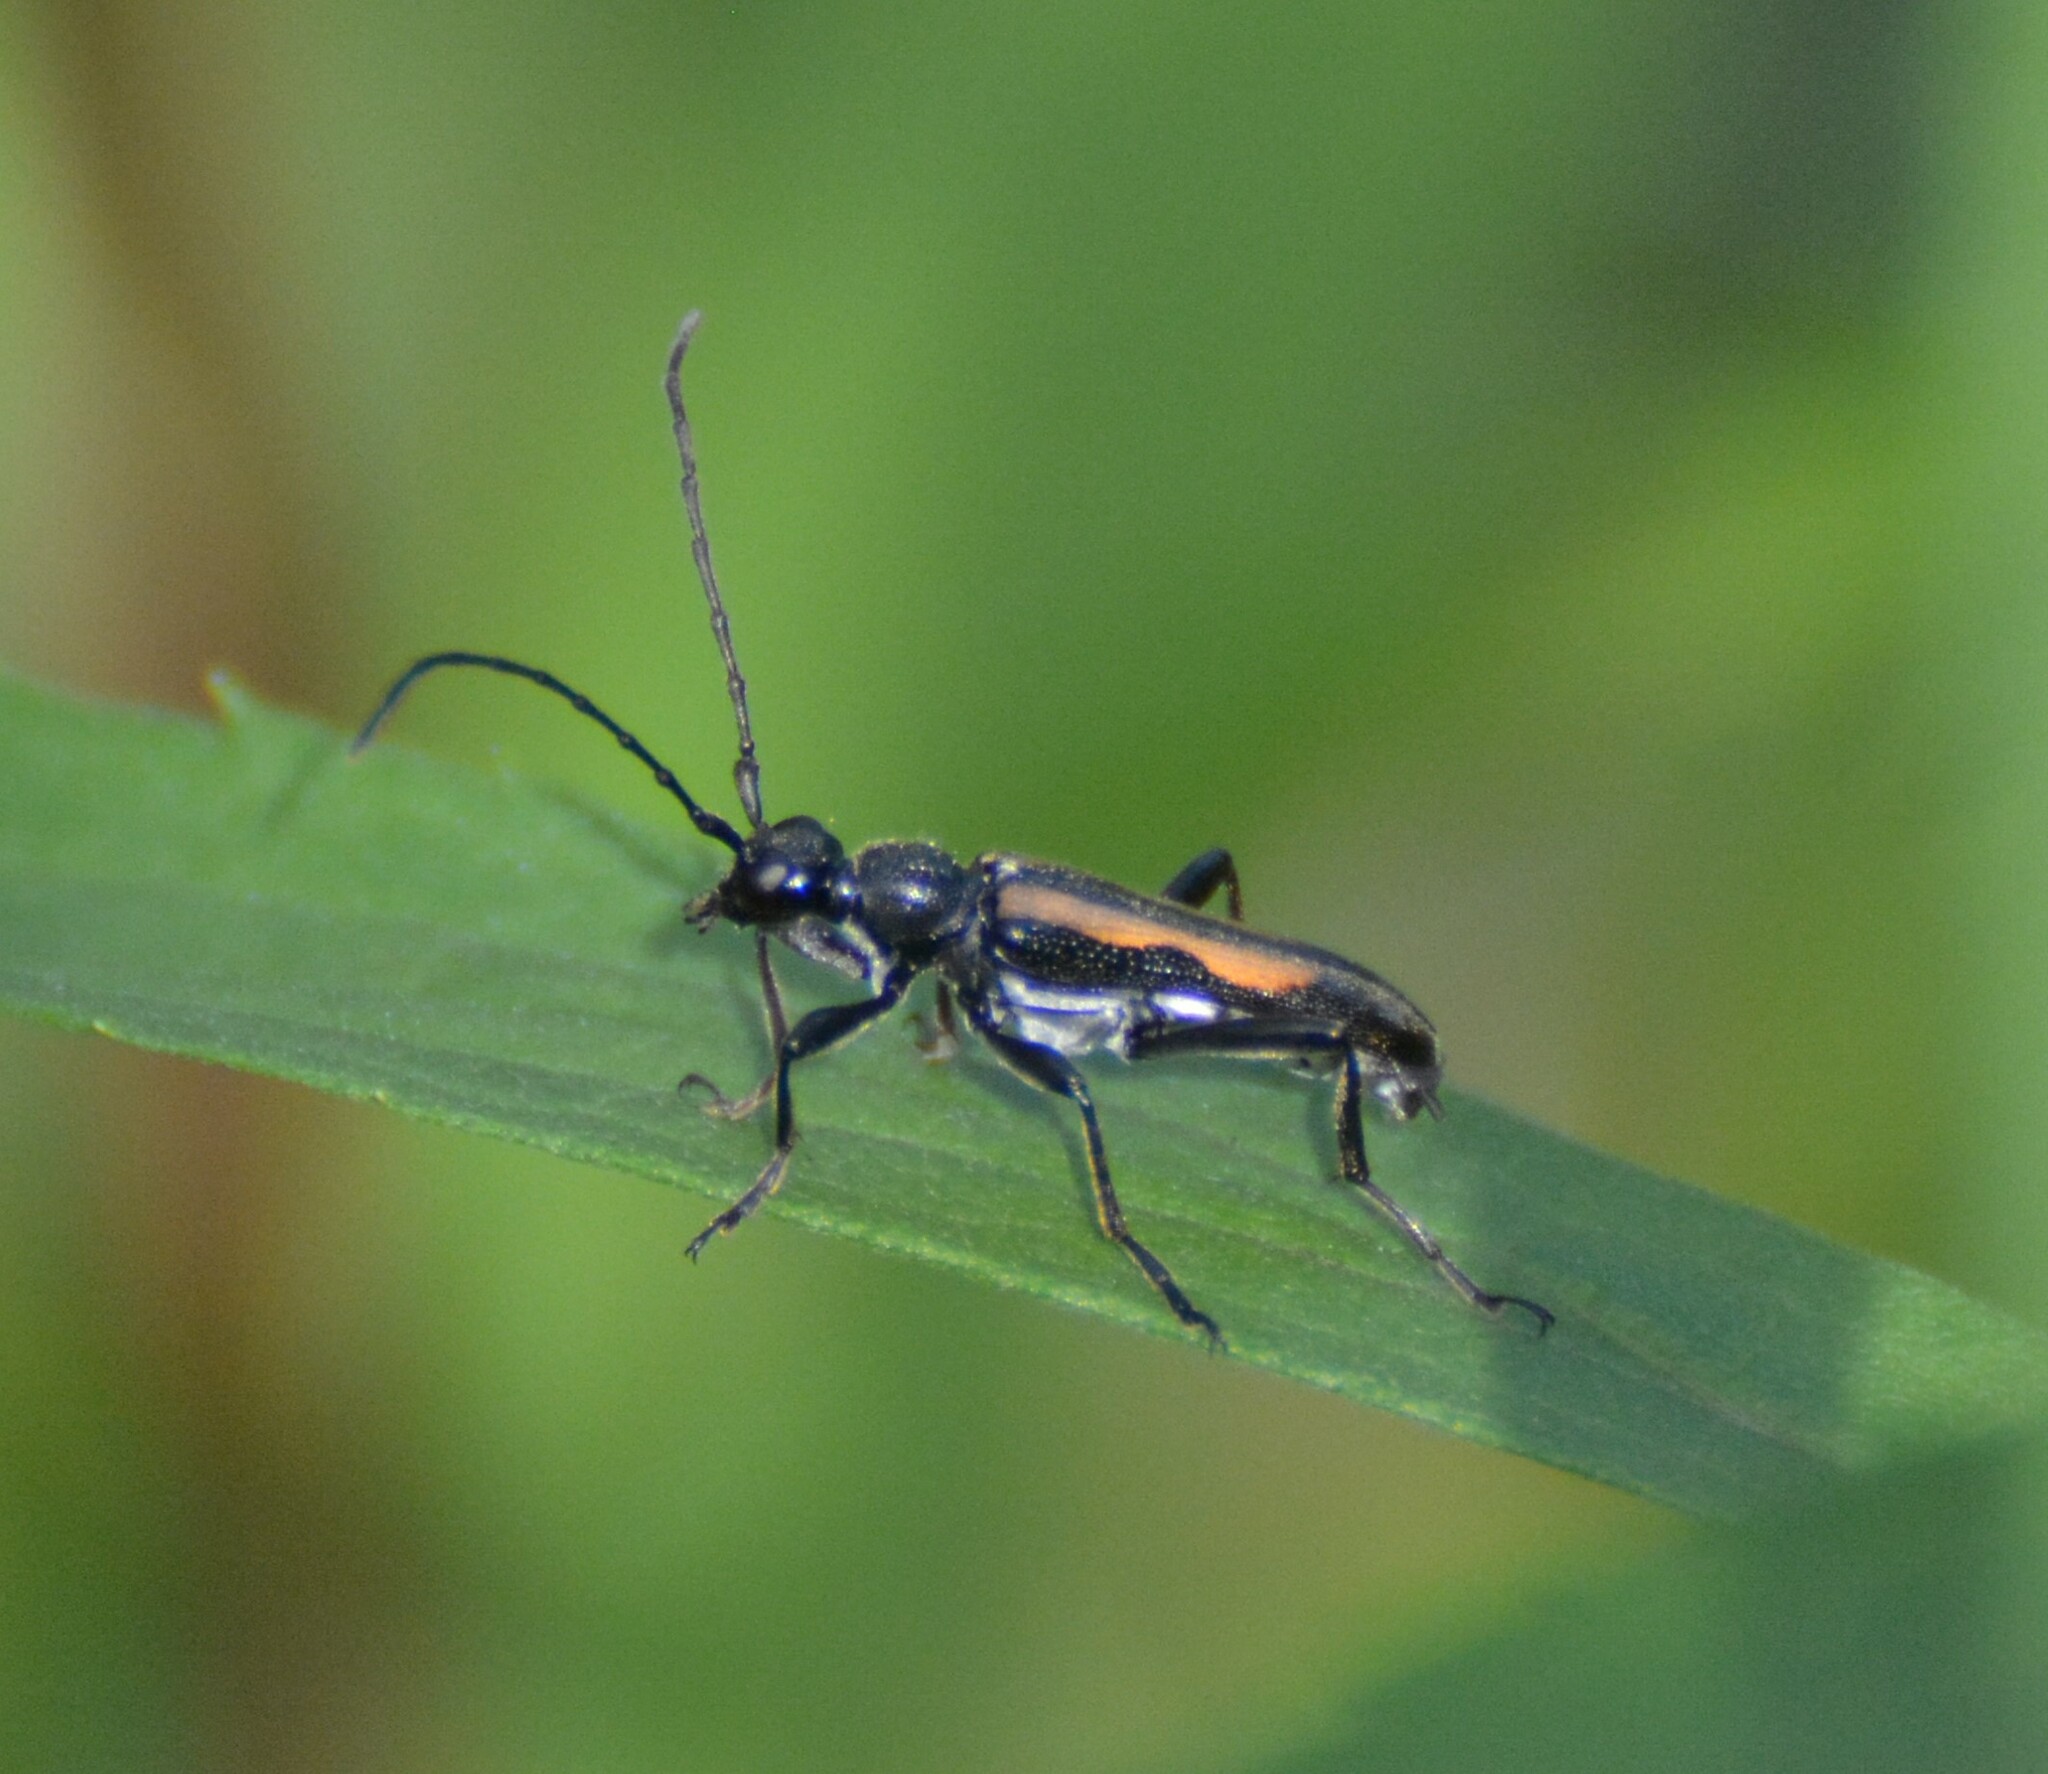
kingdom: Animalia
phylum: Arthropoda
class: Insecta
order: Coleoptera
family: Cerambycidae
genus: Strangalepta
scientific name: Strangalepta abbreviata
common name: Strangalepta flower longhorn beetle
